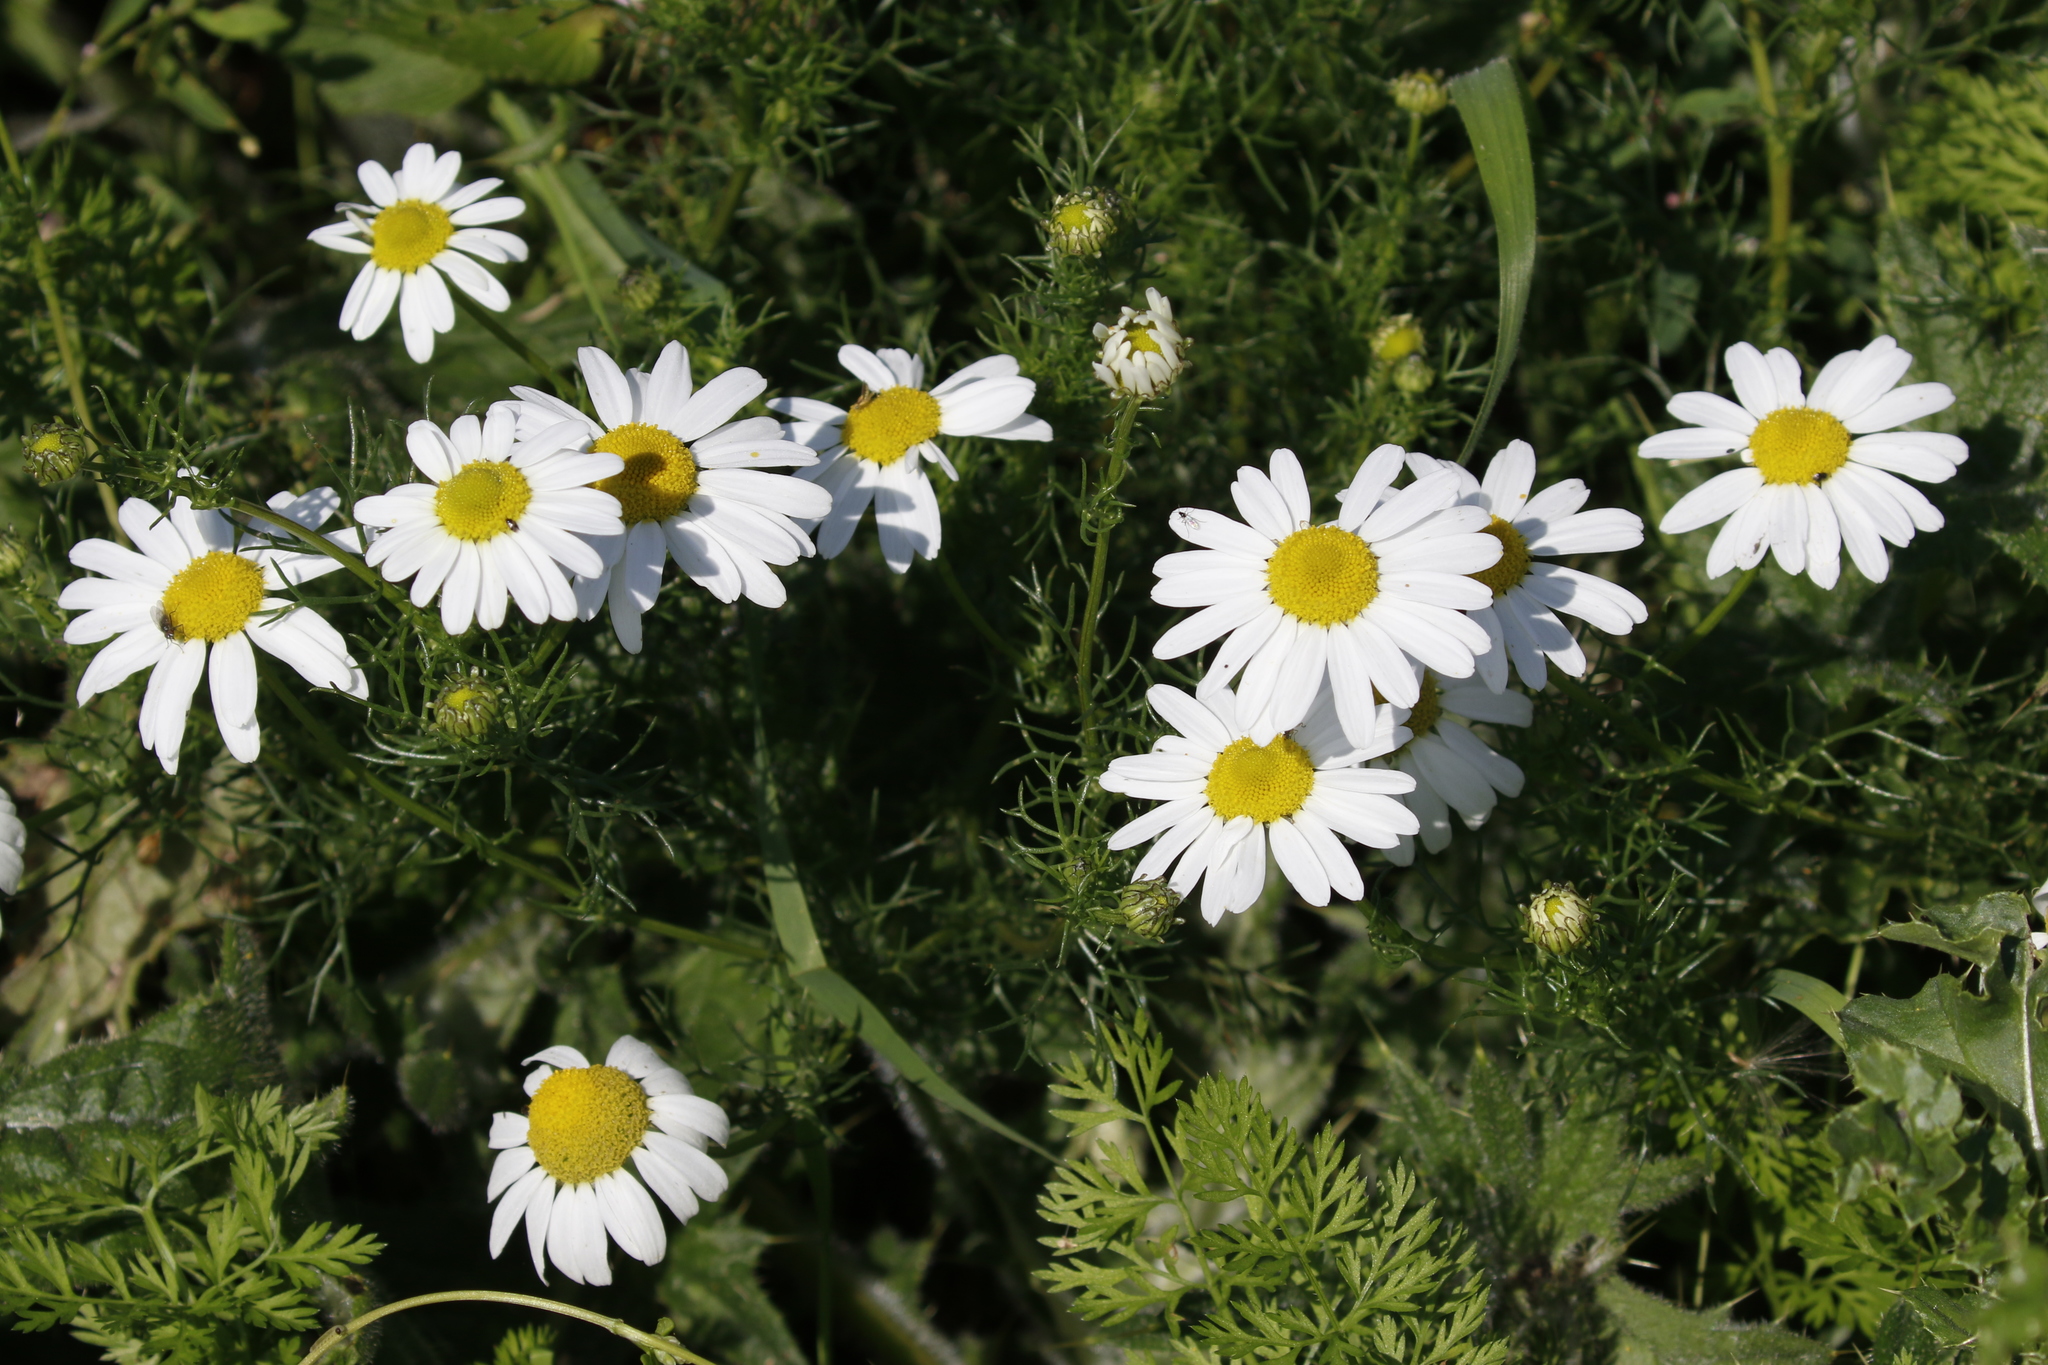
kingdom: Plantae
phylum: Tracheophyta
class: Magnoliopsida
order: Asterales
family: Asteraceae
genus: Tripleurospermum
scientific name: Tripleurospermum inodorum
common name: Scentless mayweed
